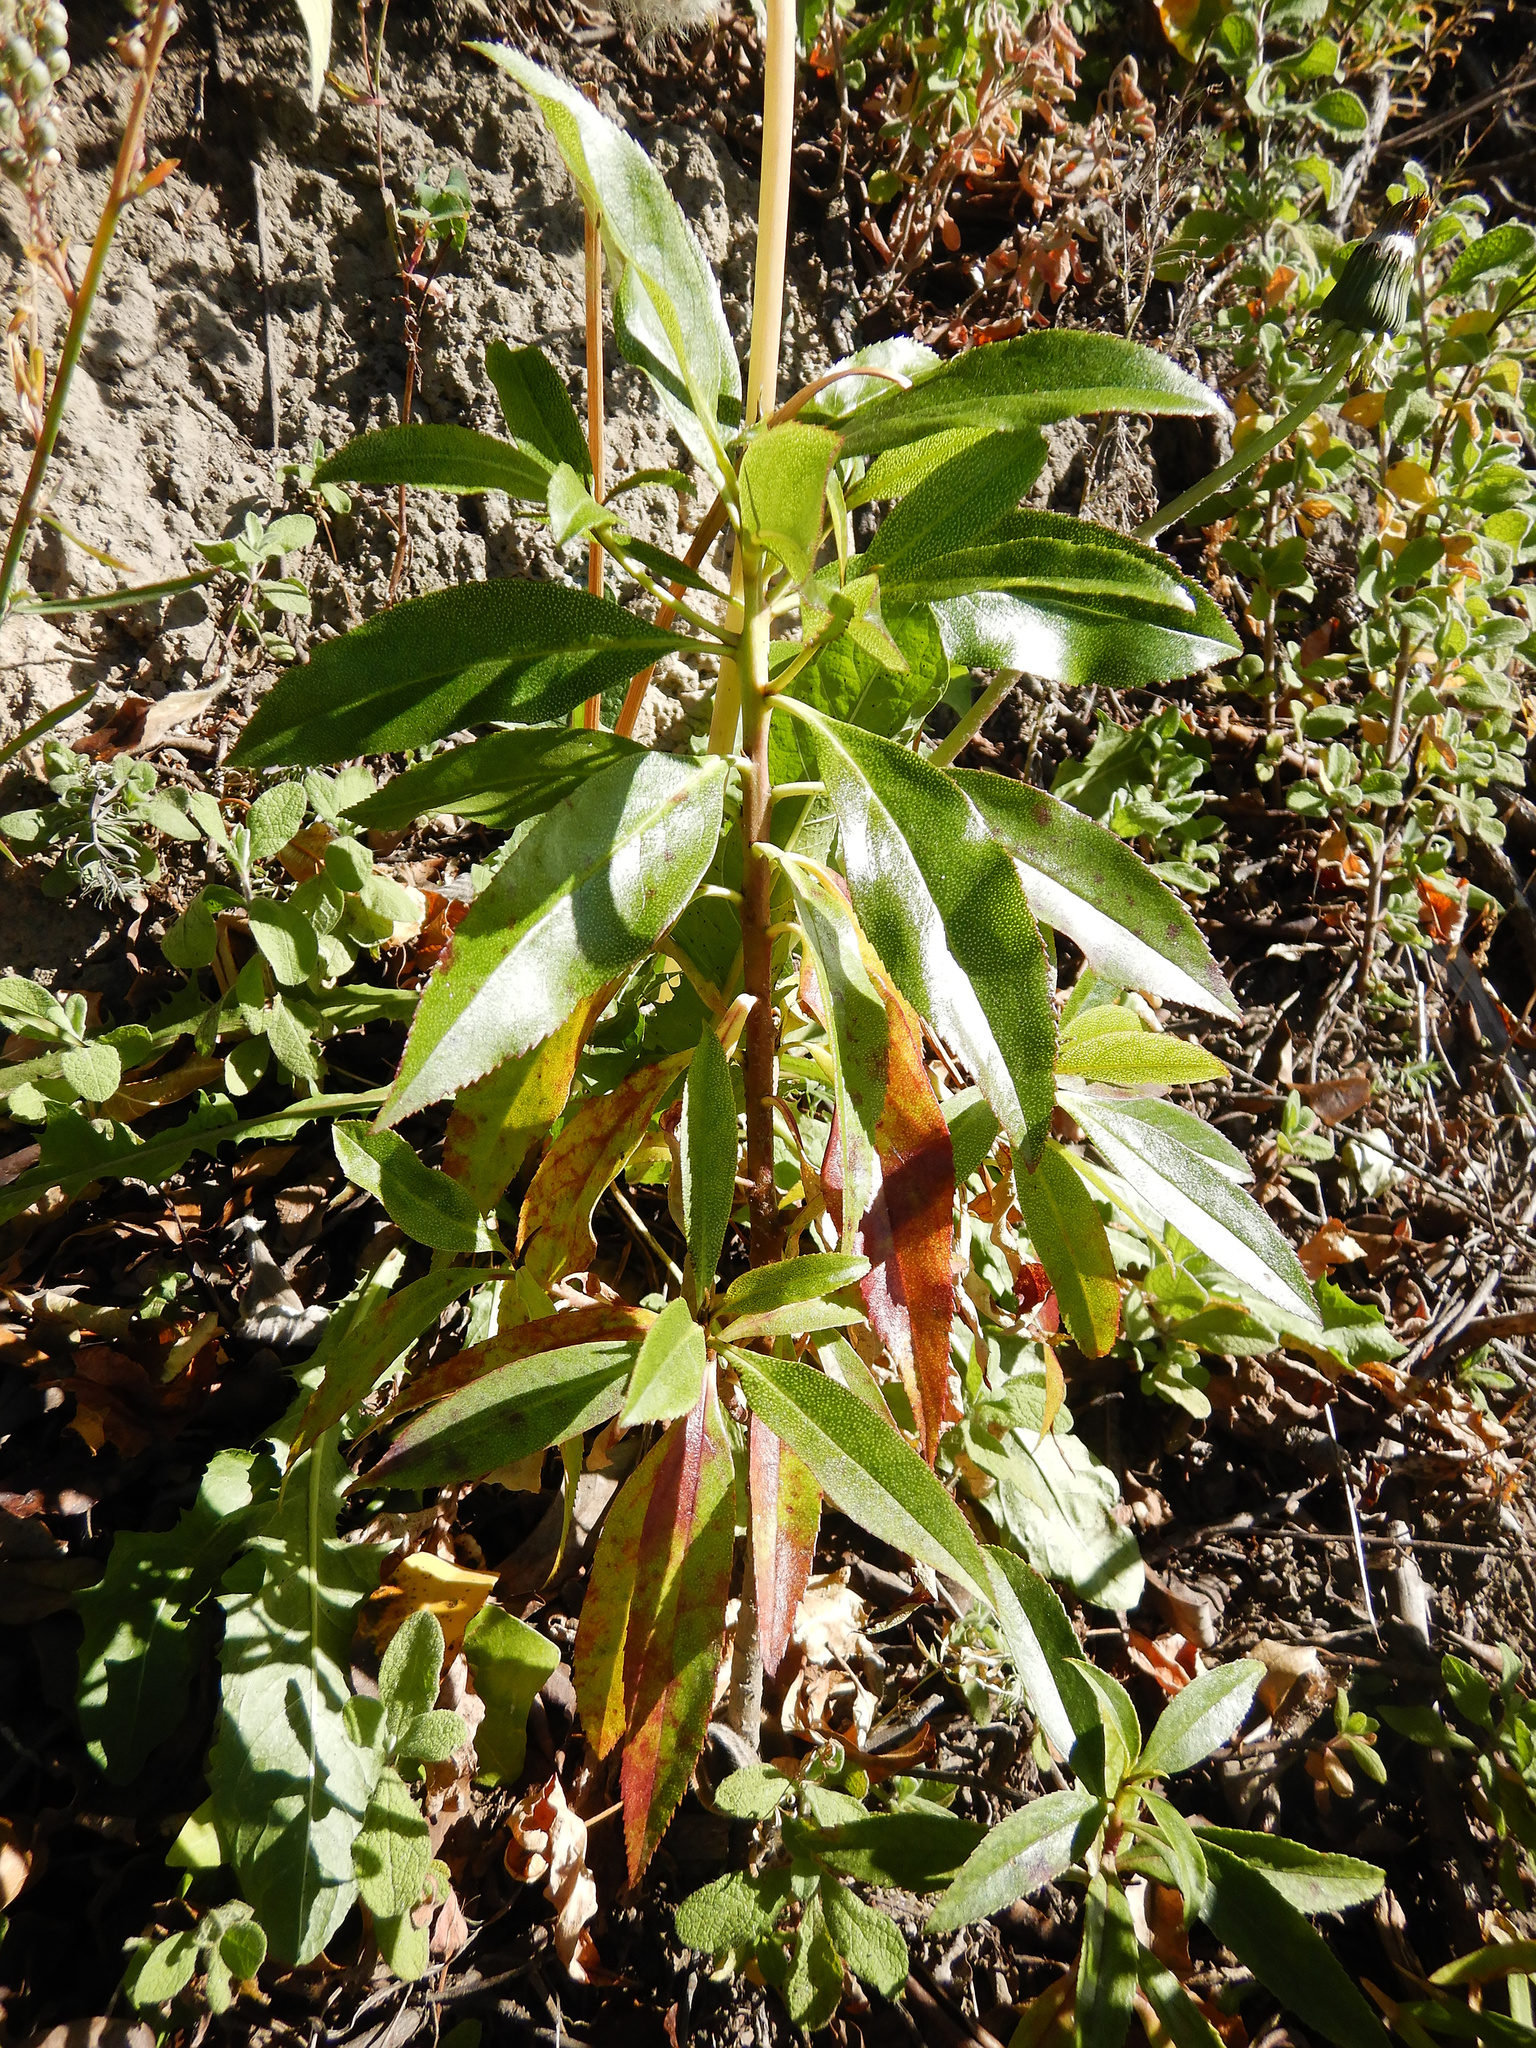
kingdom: Plantae
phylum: Tracheophyta
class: Magnoliopsida
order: Lamiales
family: Scrophulariaceae
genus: Myoporum
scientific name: Myoporum laetum
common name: Ngaio tree
